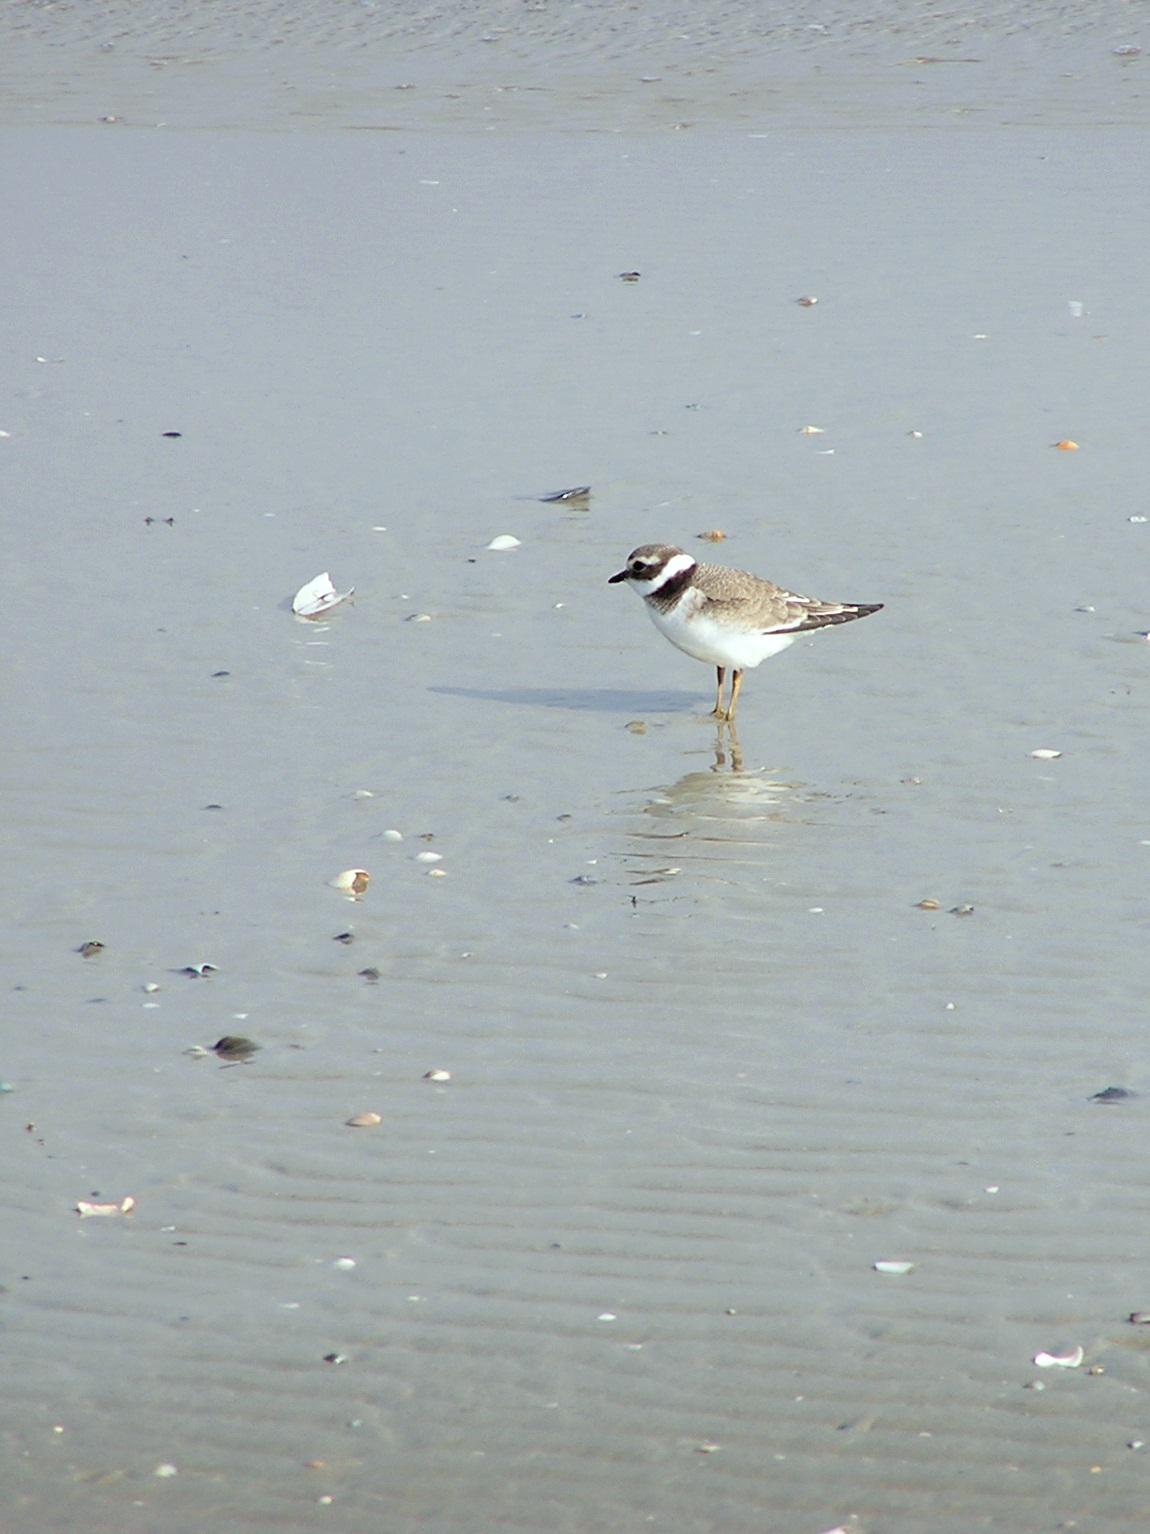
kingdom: Animalia
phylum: Chordata
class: Aves
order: Charadriiformes
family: Charadriidae
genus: Charadrius
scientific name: Charadrius hiaticula
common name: Common ringed plover
